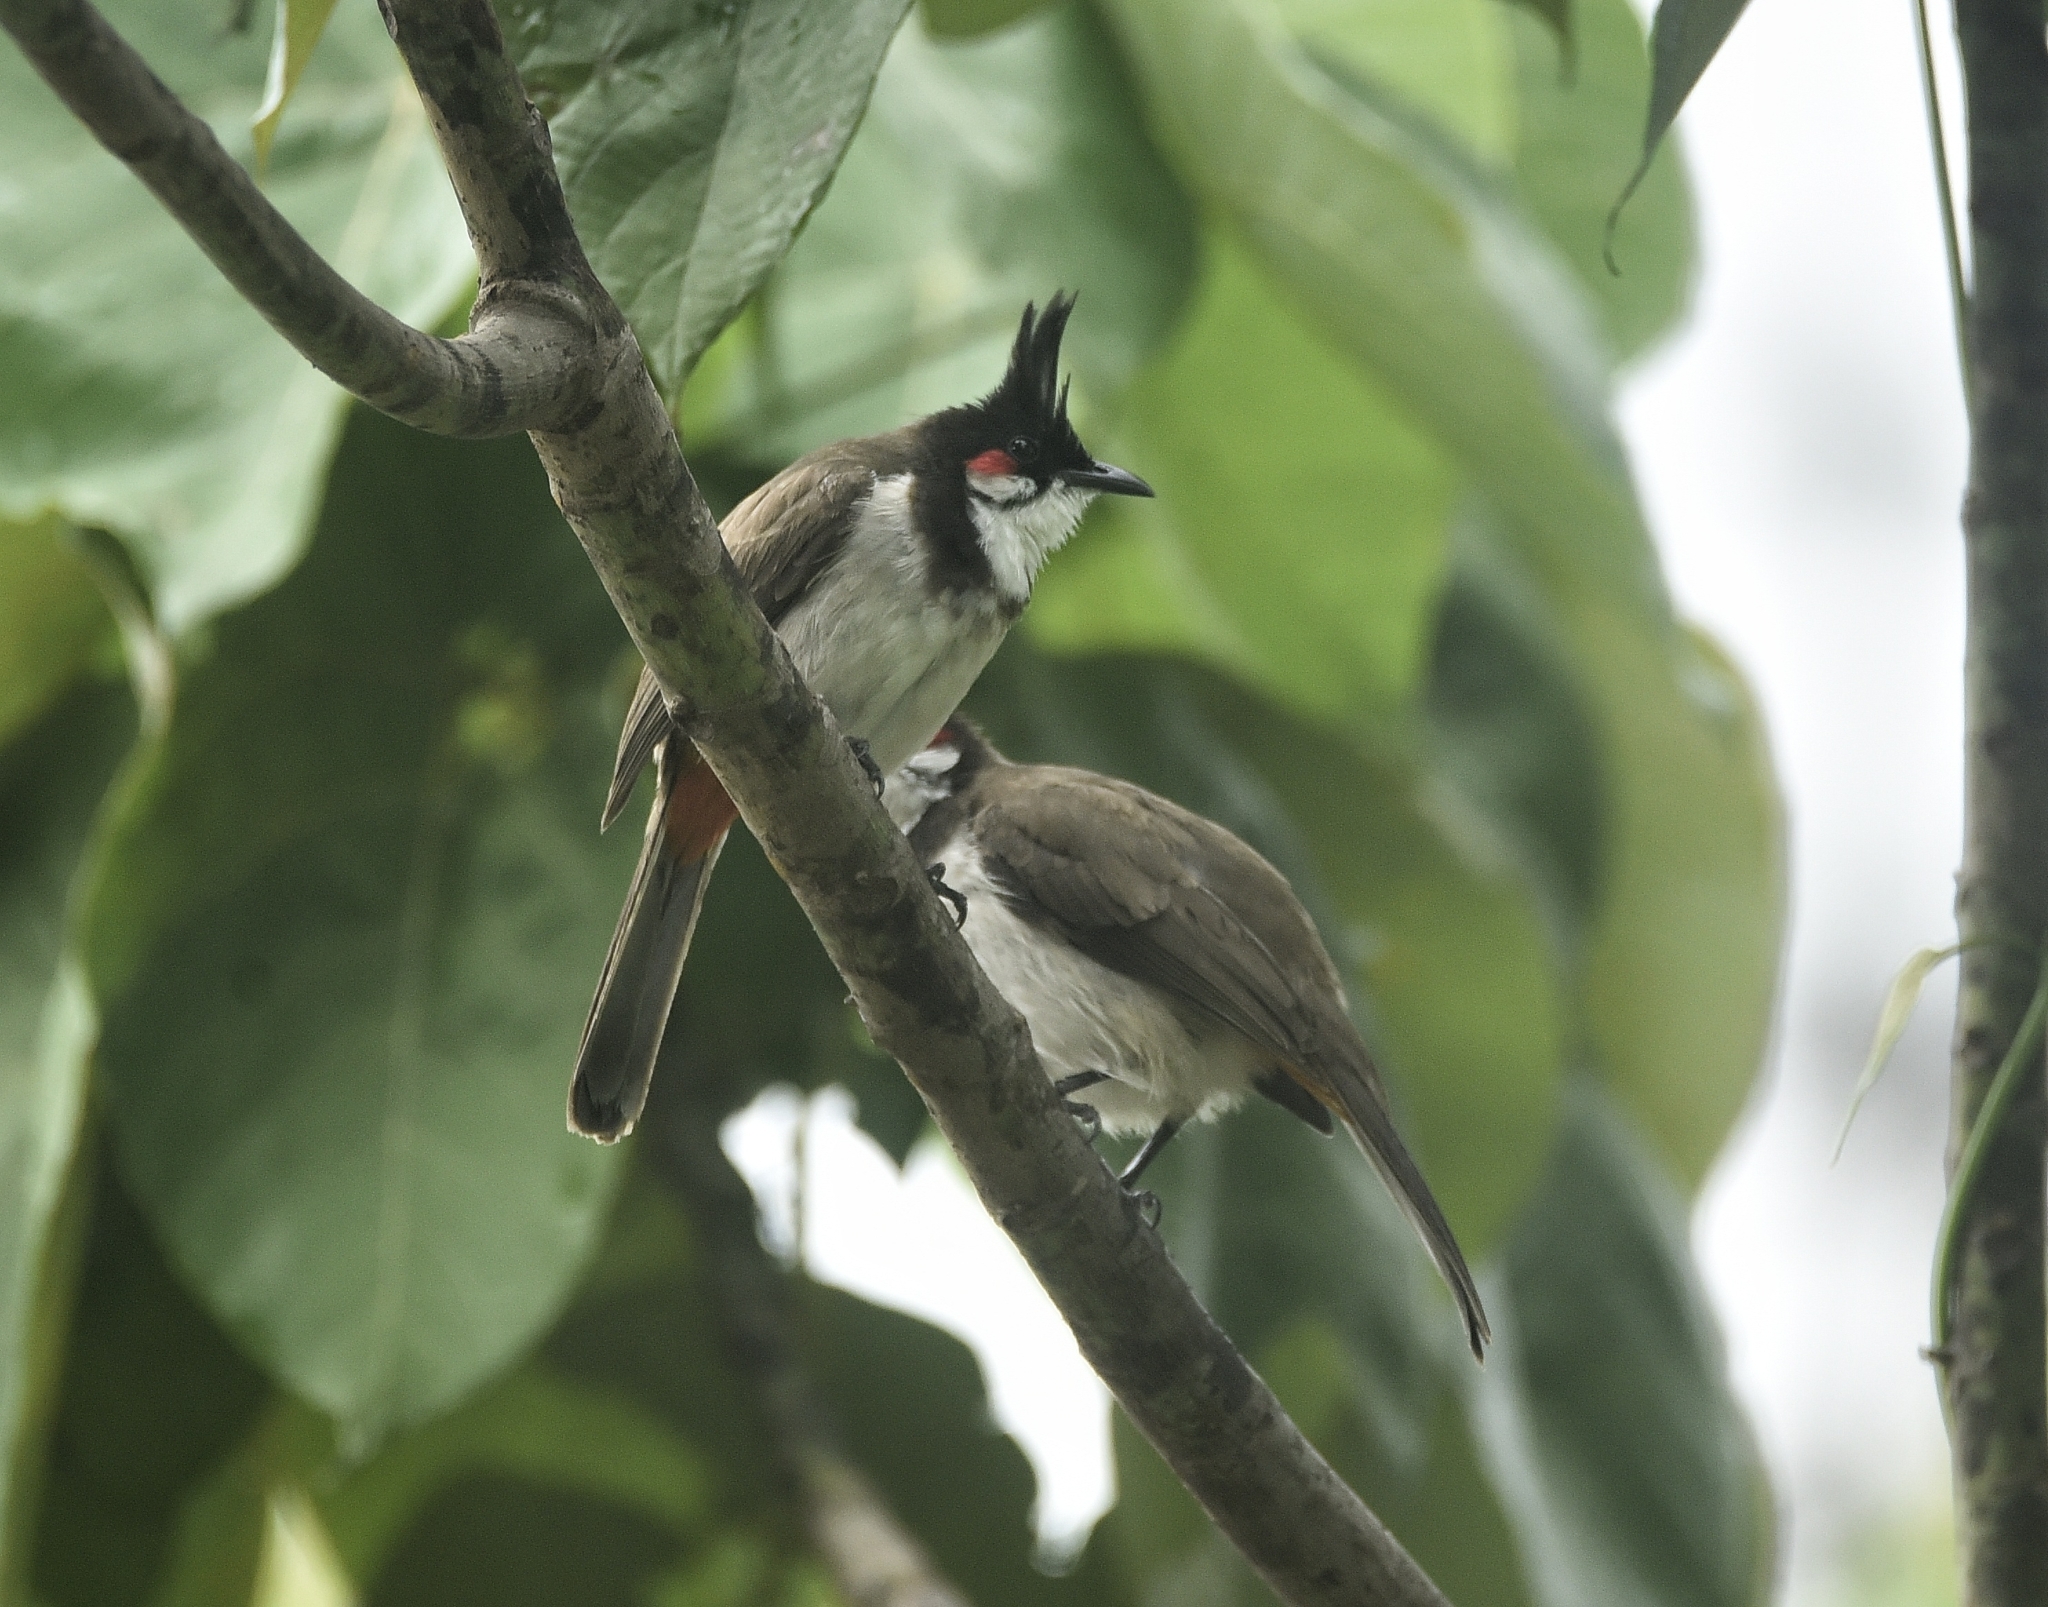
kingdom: Animalia
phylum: Chordata
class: Aves
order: Passeriformes
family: Pycnonotidae
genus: Pycnonotus
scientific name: Pycnonotus jocosus
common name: Red-whiskered bulbul
